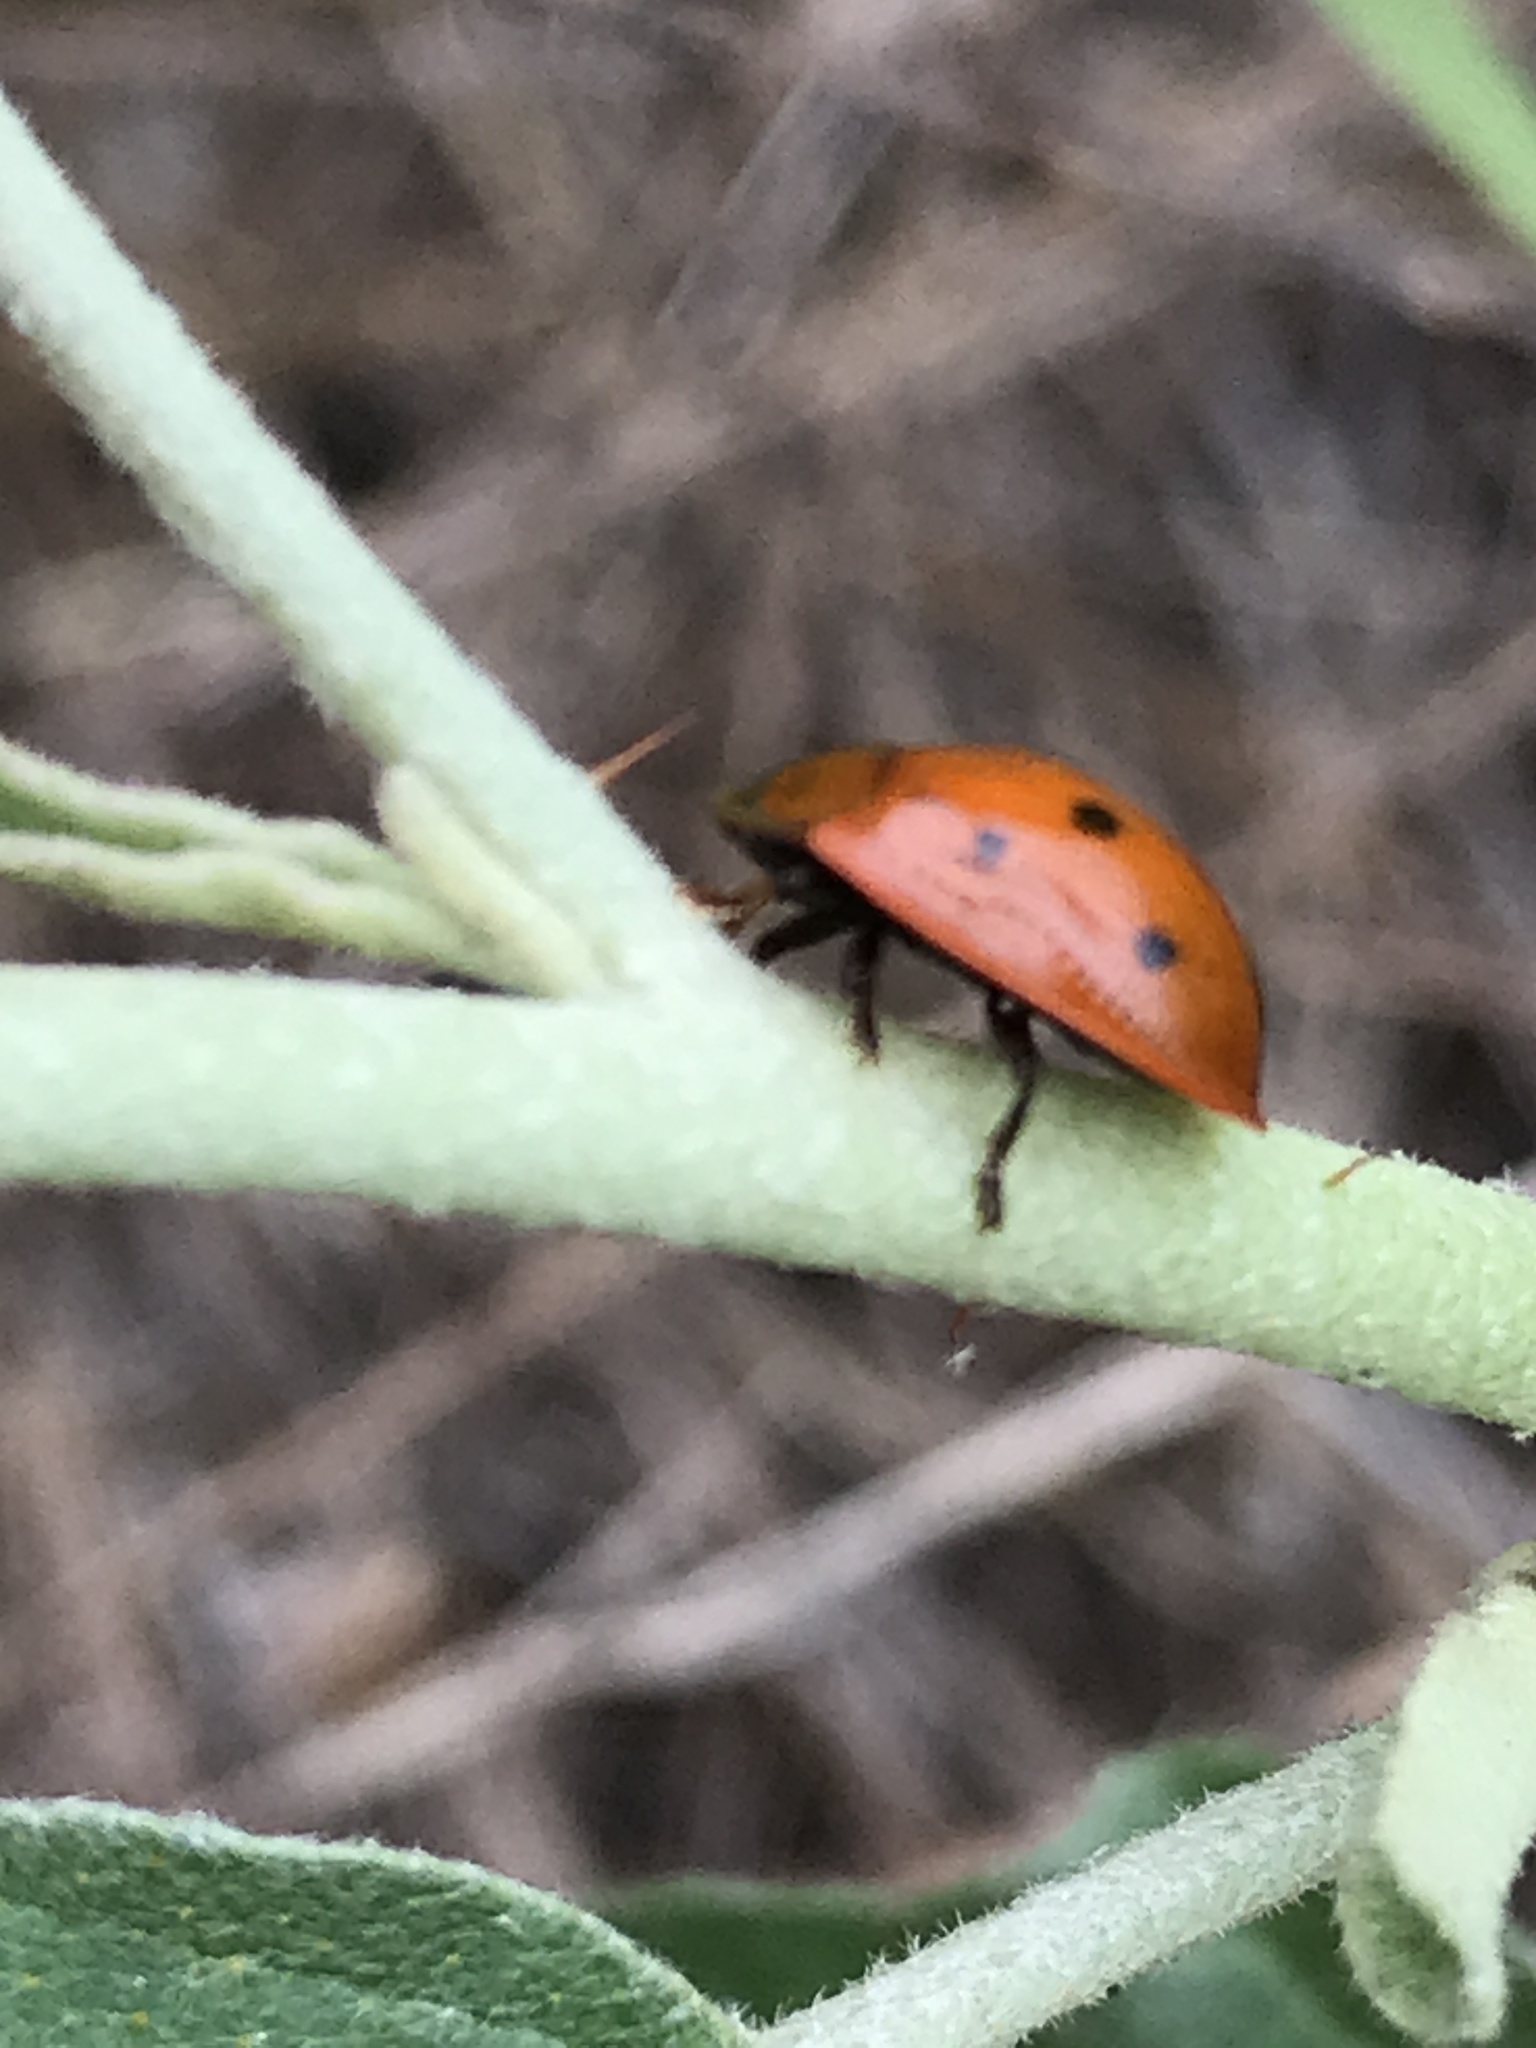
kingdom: Animalia
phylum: Arthropoda
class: Insecta
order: Coleoptera
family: Chrysomelidae
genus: Jonthonota
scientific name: Jonthonota nigripes
